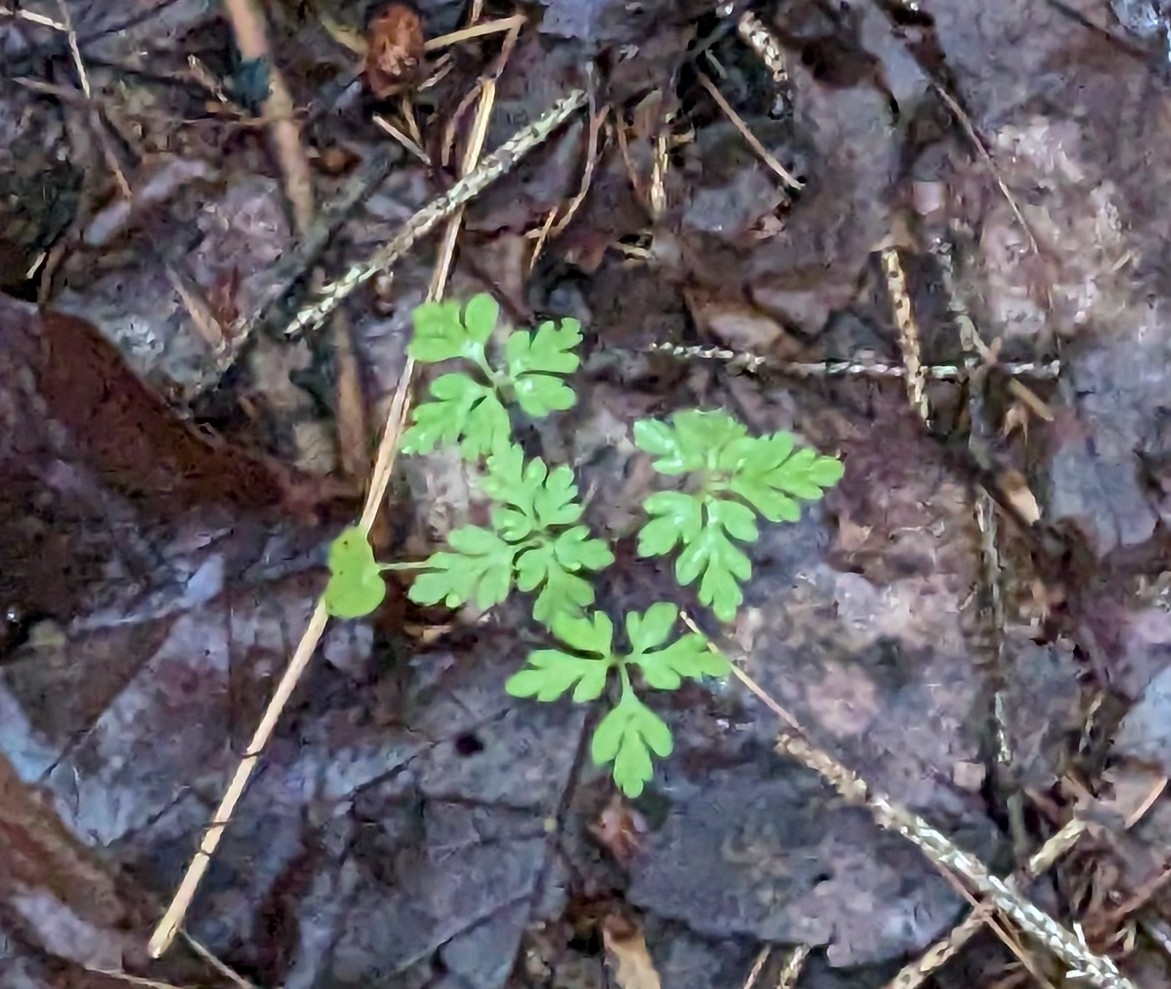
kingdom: Plantae
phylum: Tracheophyta
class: Magnoliopsida
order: Geraniales
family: Geraniaceae
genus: Geranium
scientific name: Geranium robertianum
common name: Herb-robert
